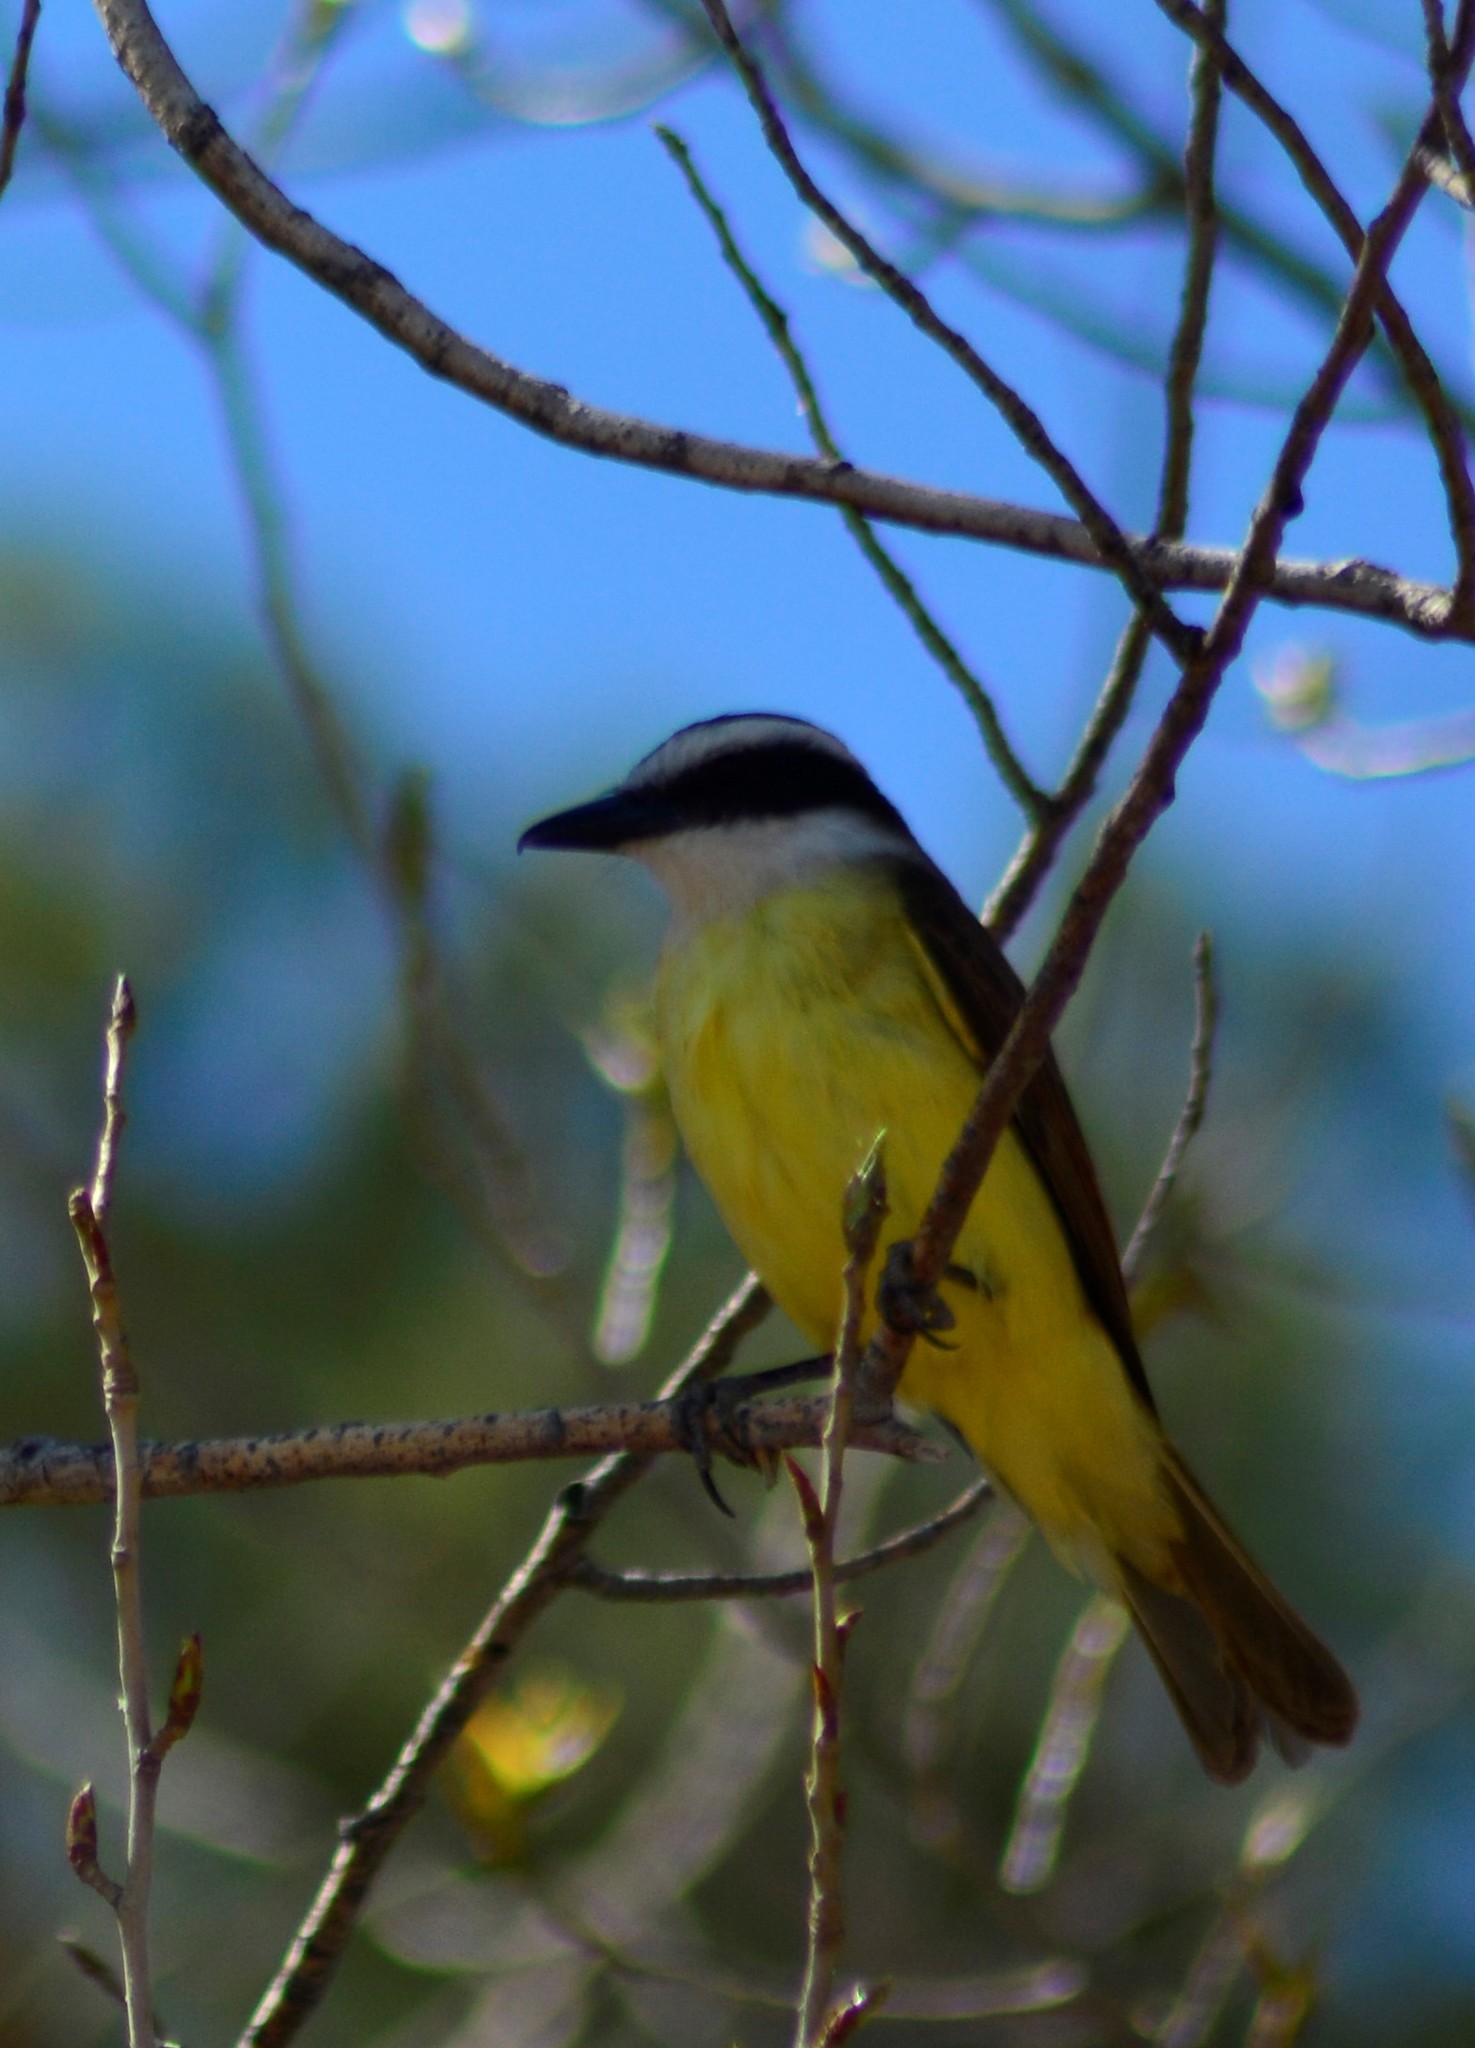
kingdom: Animalia
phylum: Chordata
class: Aves
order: Passeriformes
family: Tyrannidae
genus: Pitangus
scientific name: Pitangus sulphuratus
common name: Great kiskadee
